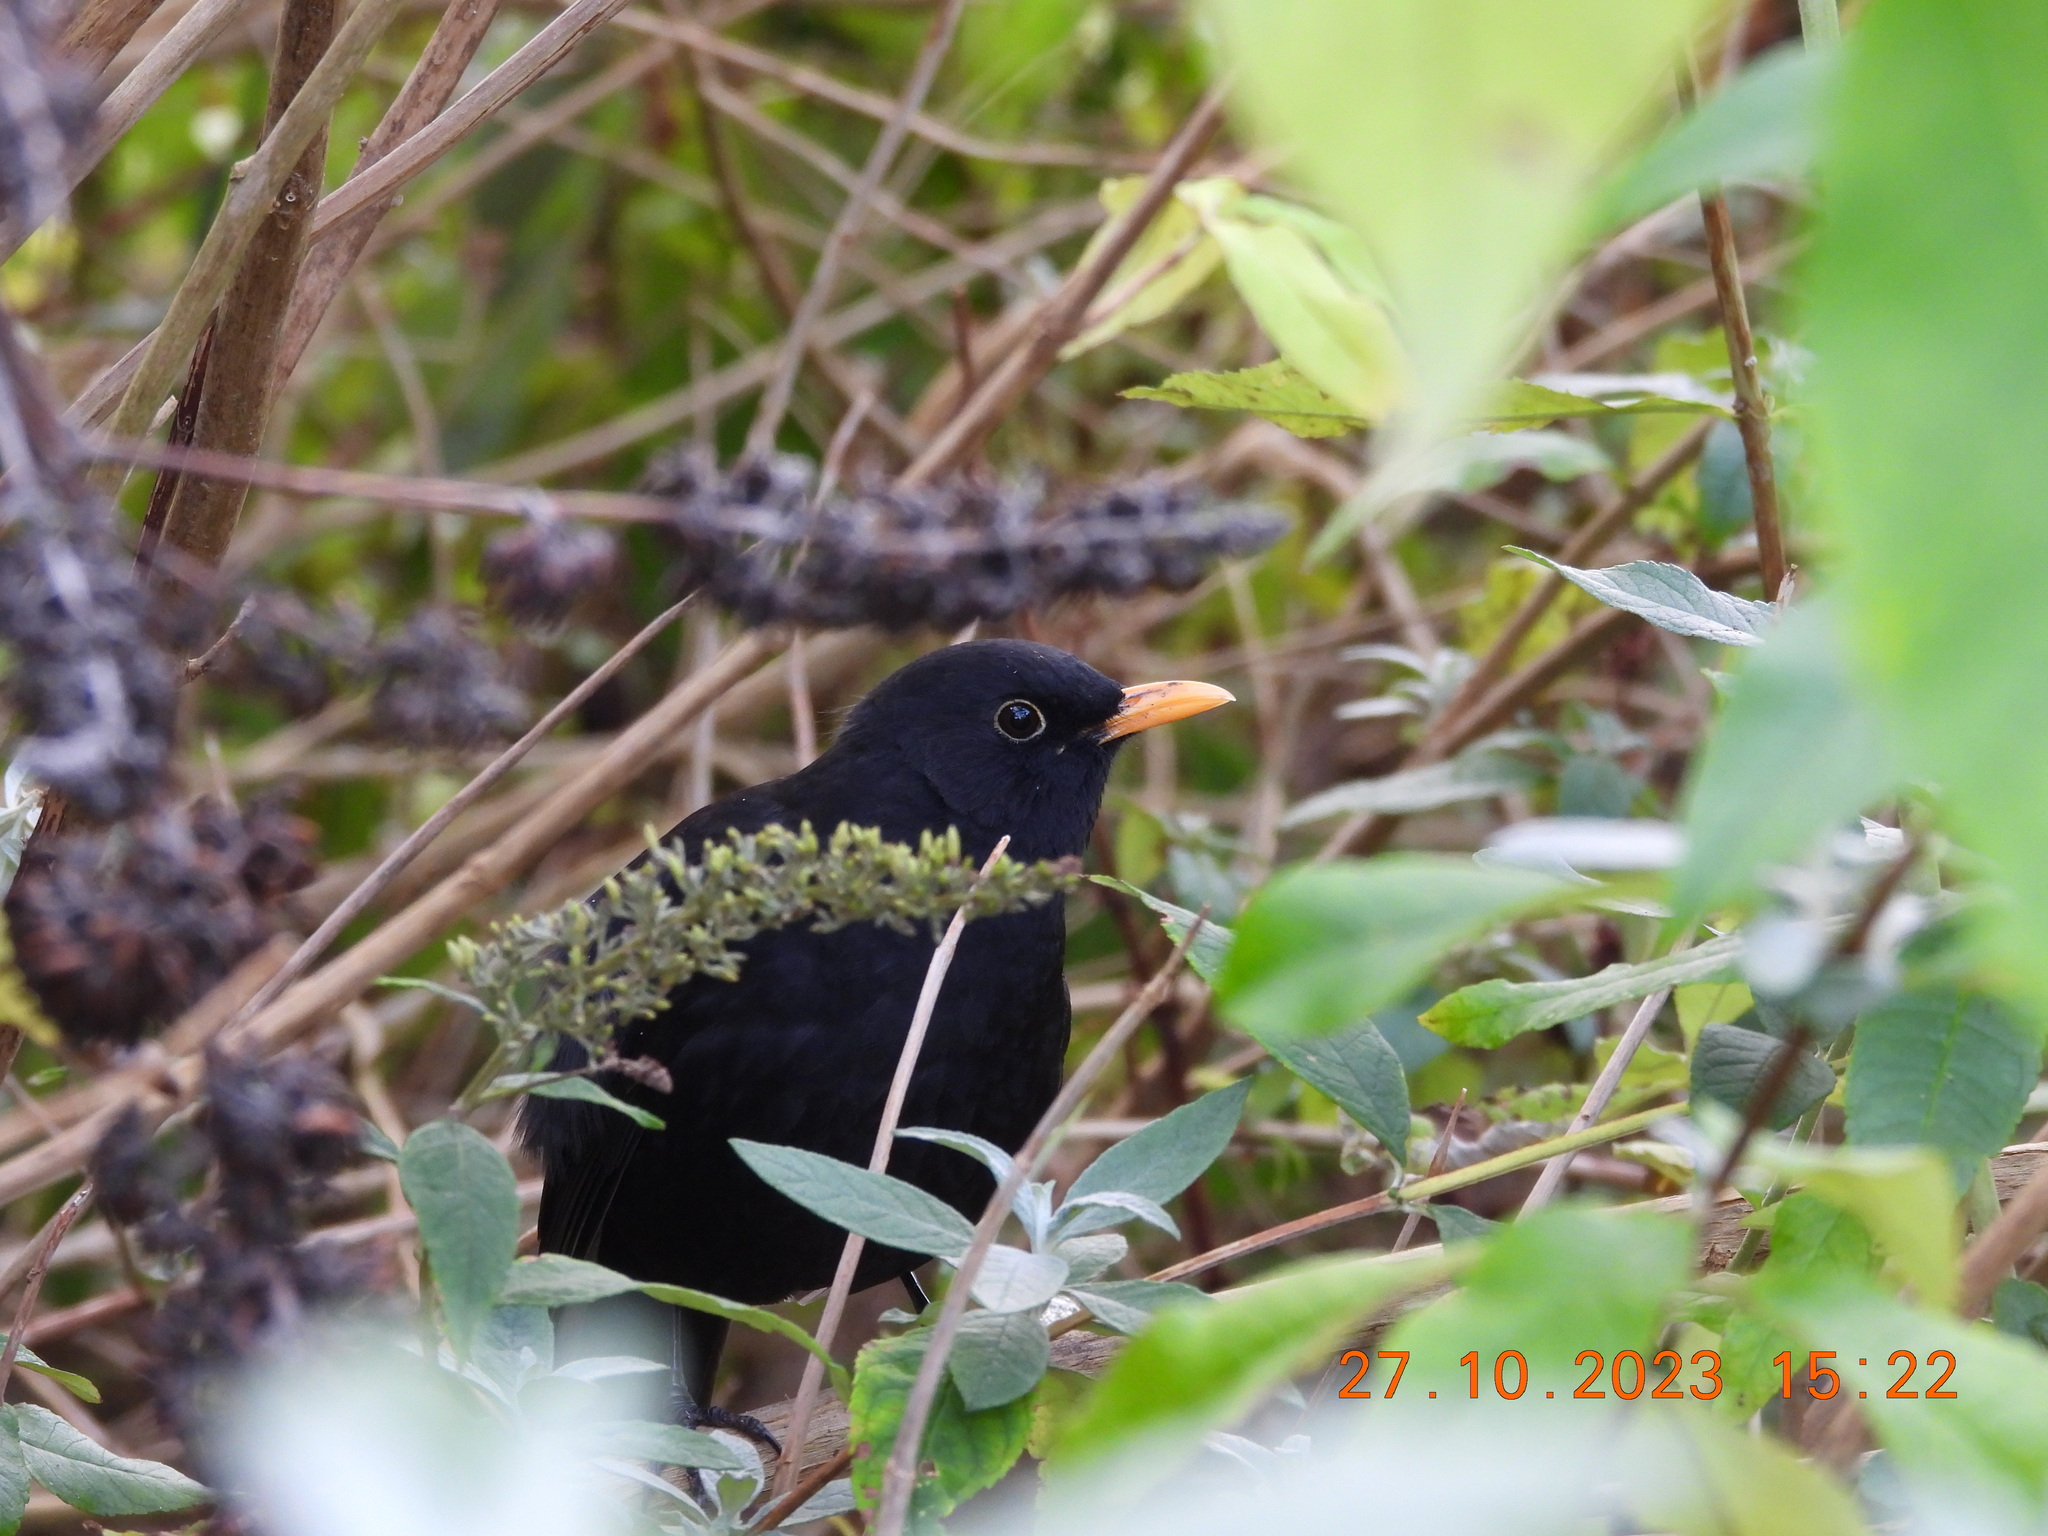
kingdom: Animalia
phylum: Chordata
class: Aves
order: Passeriformes
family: Turdidae
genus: Turdus
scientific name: Turdus merula
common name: Common blackbird
